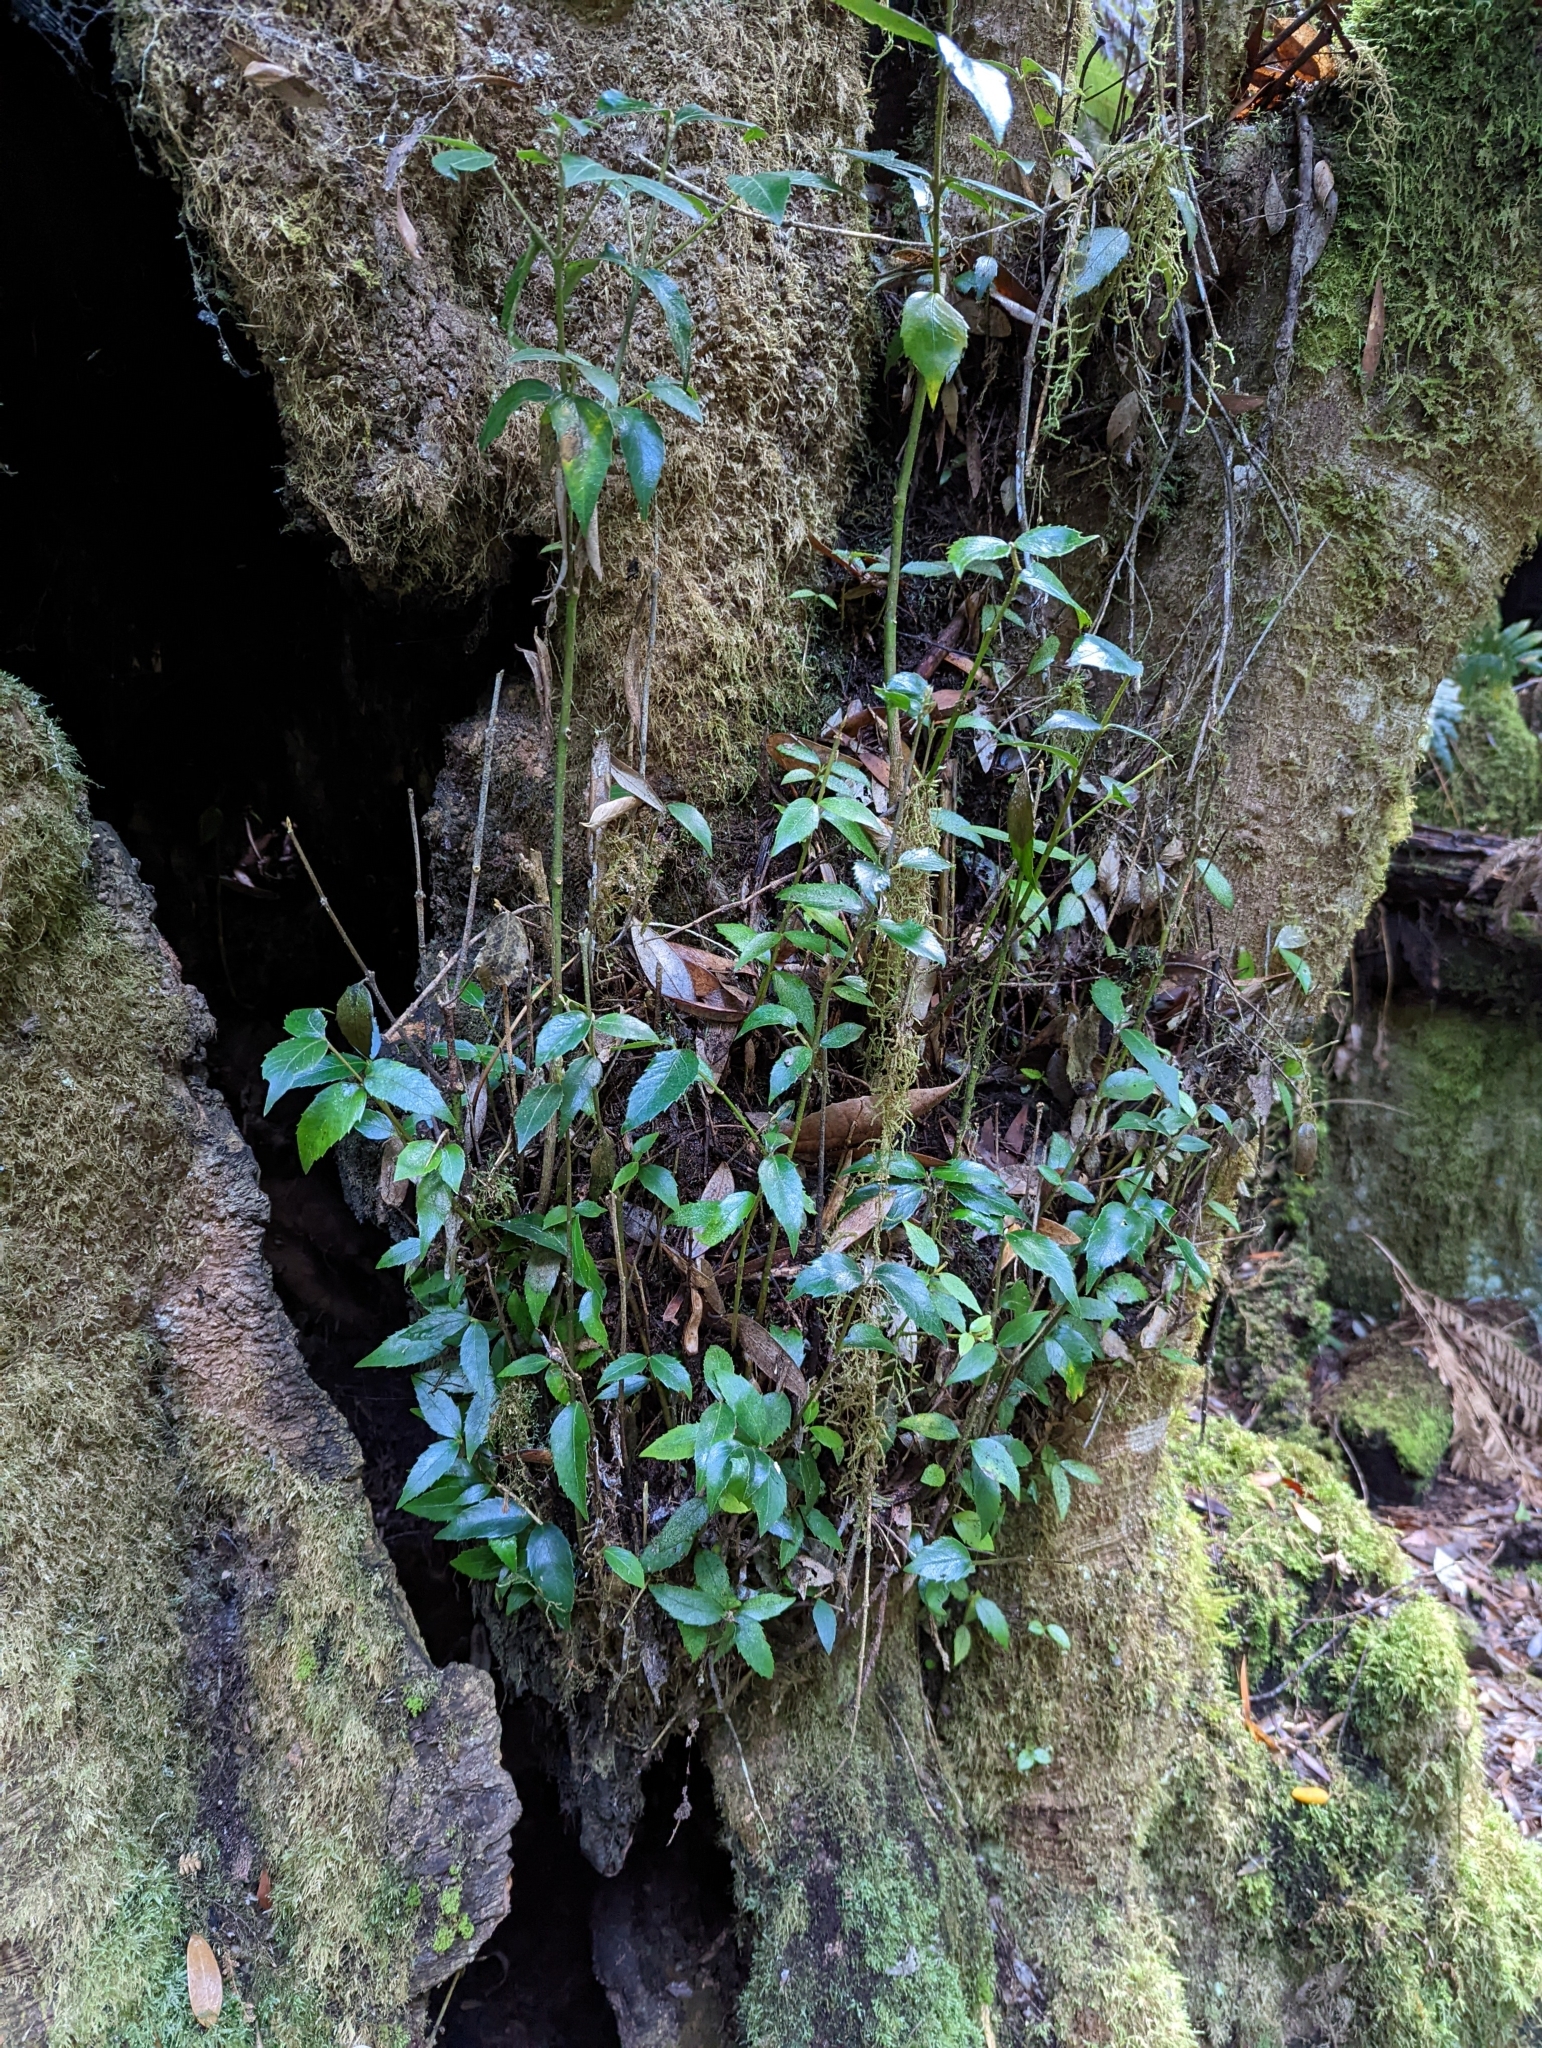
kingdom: Plantae
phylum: Tracheophyta
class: Magnoliopsida
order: Laurales
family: Atherospermataceae
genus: Atherosperma
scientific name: Atherosperma moschatum
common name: Tasmanian-sassafras
